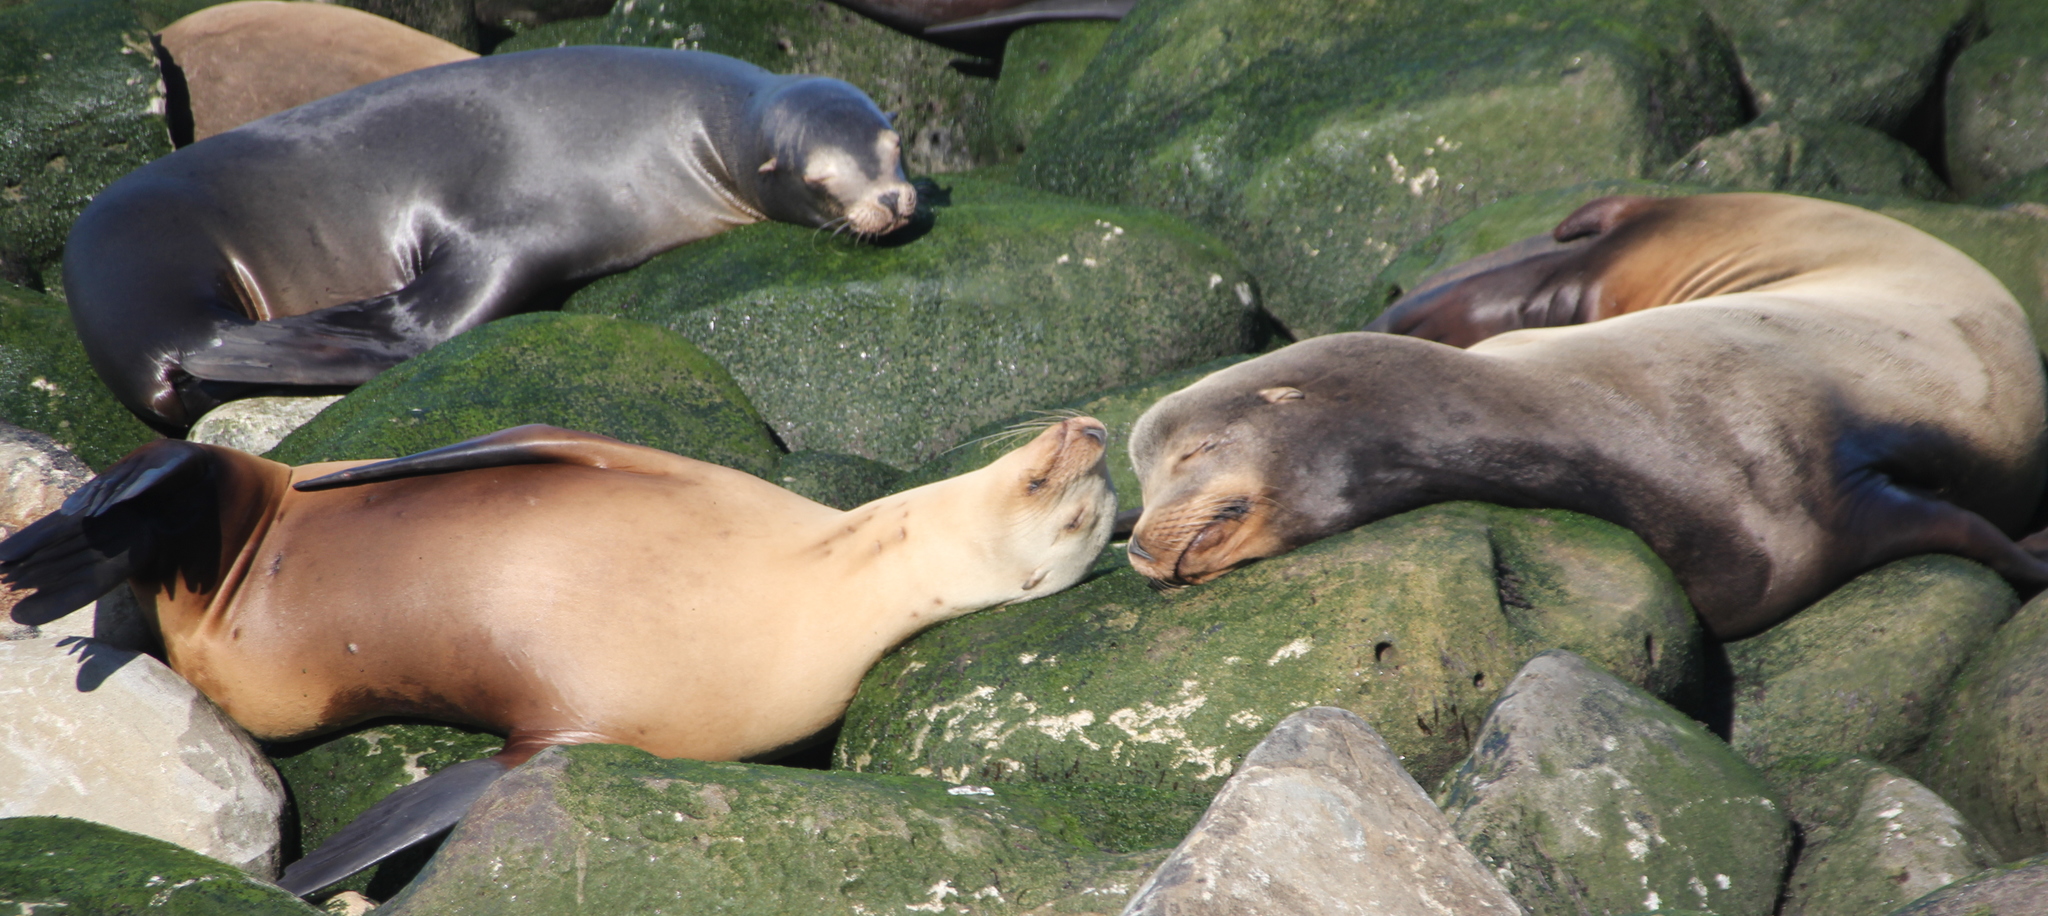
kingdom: Animalia
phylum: Chordata
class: Mammalia
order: Carnivora
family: Otariidae
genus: Zalophus
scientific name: Zalophus californianus
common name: California sea lion
